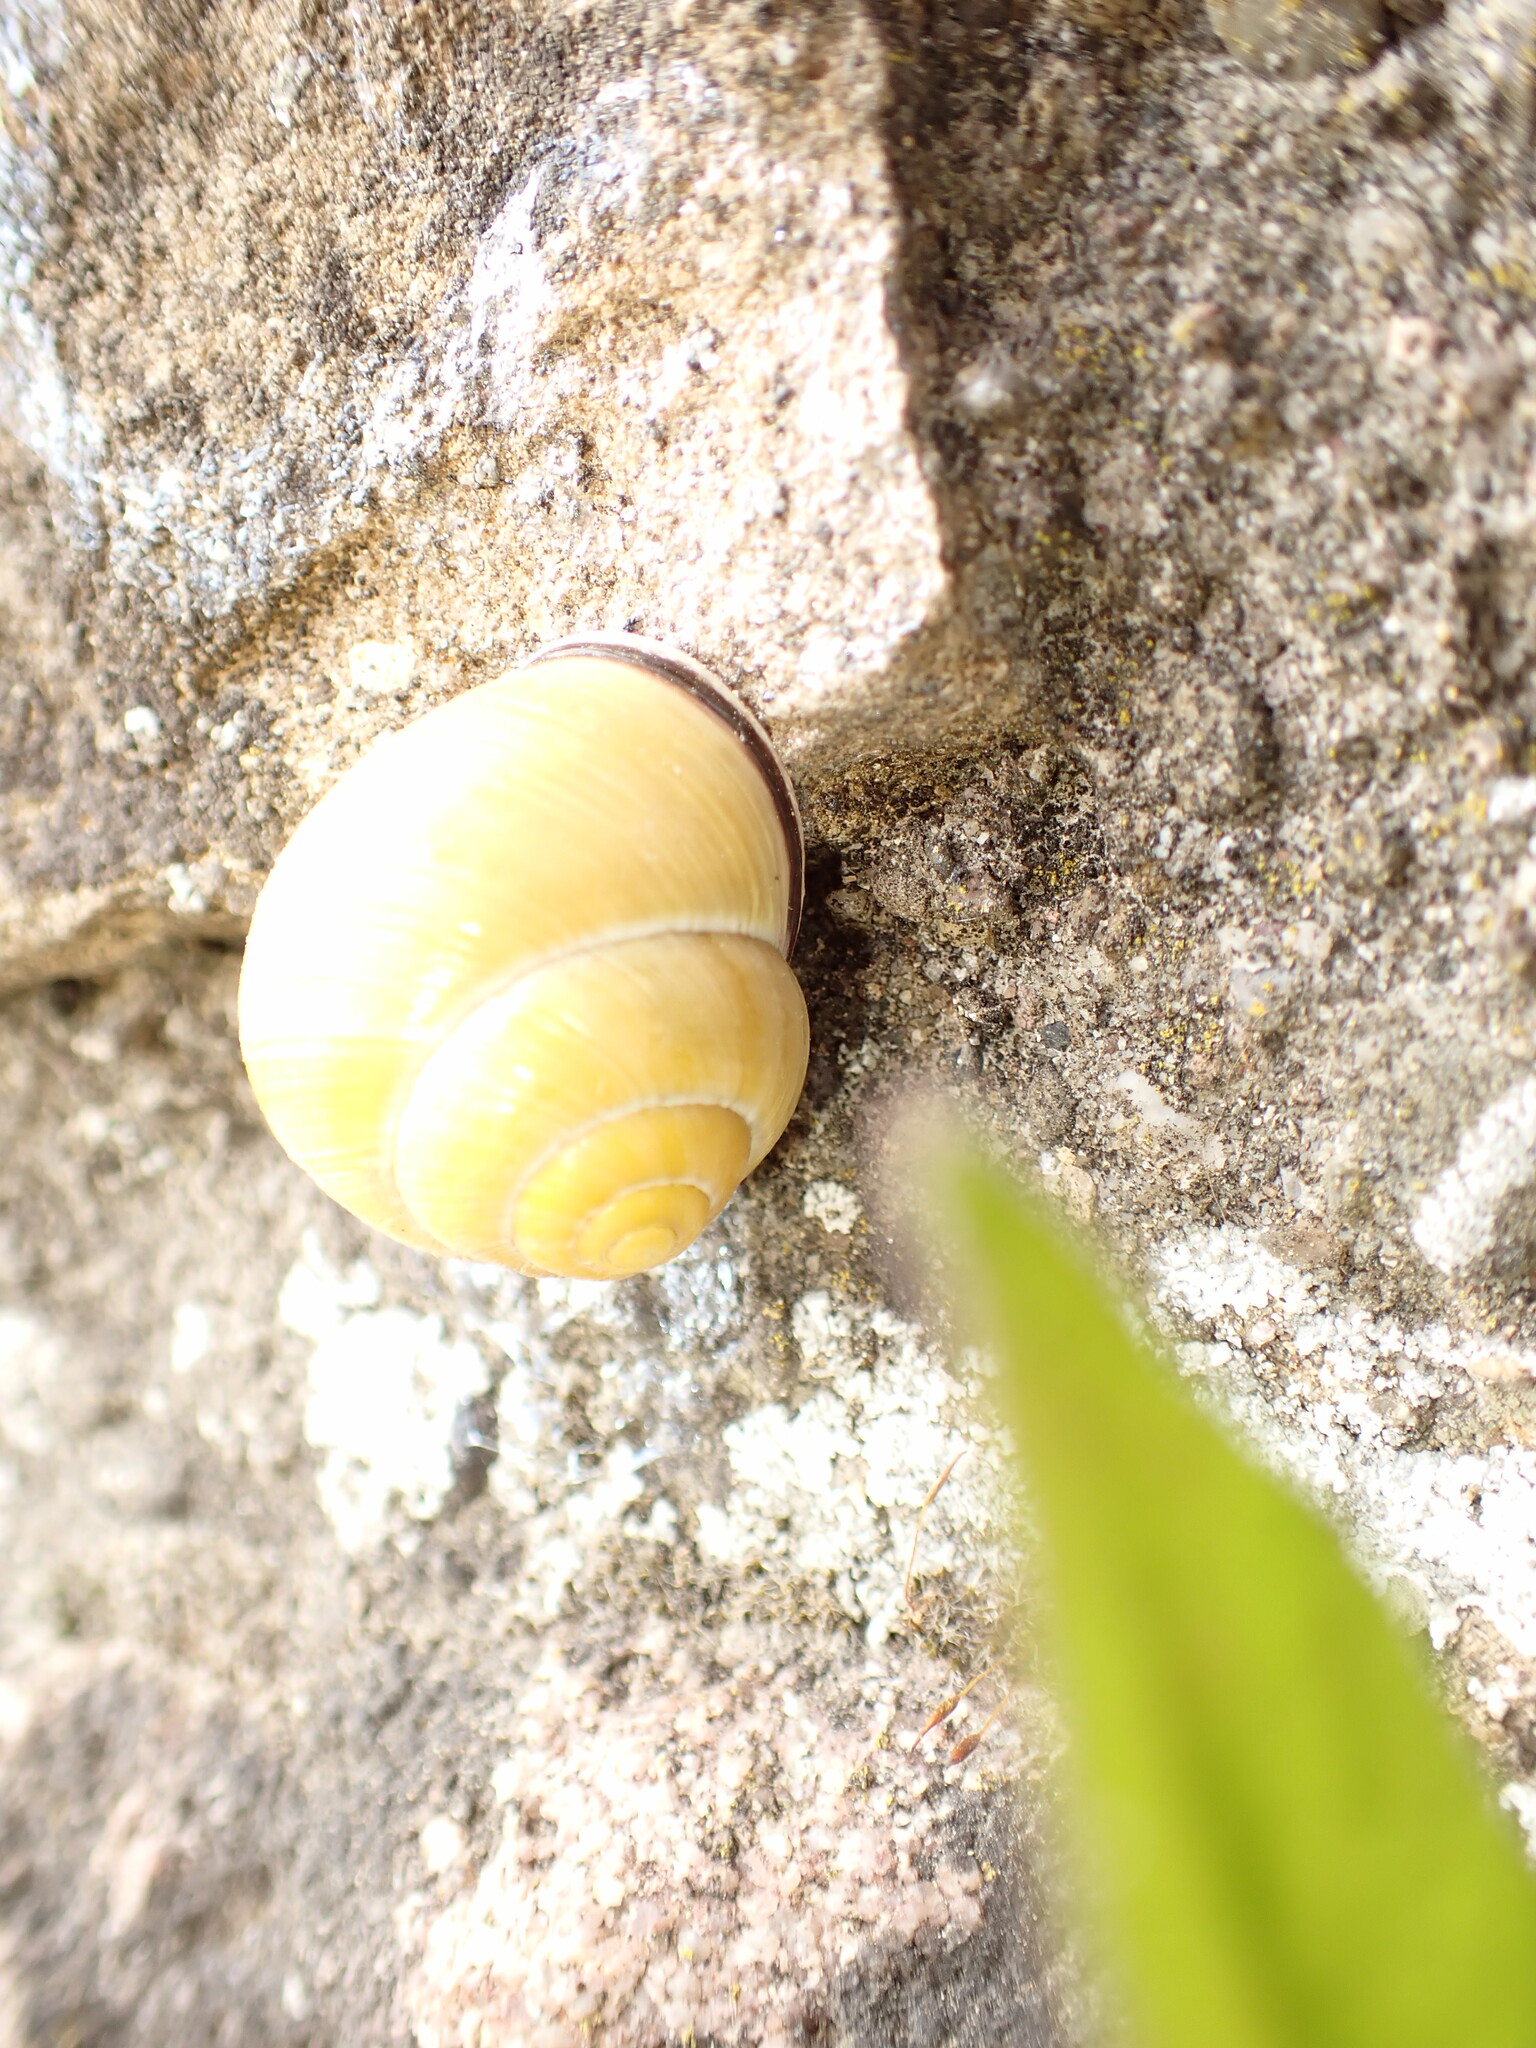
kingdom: Animalia
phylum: Mollusca
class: Gastropoda
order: Stylommatophora
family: Helicidae
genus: Cepaea
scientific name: Cepaea nemoralis
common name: Grovesnail
